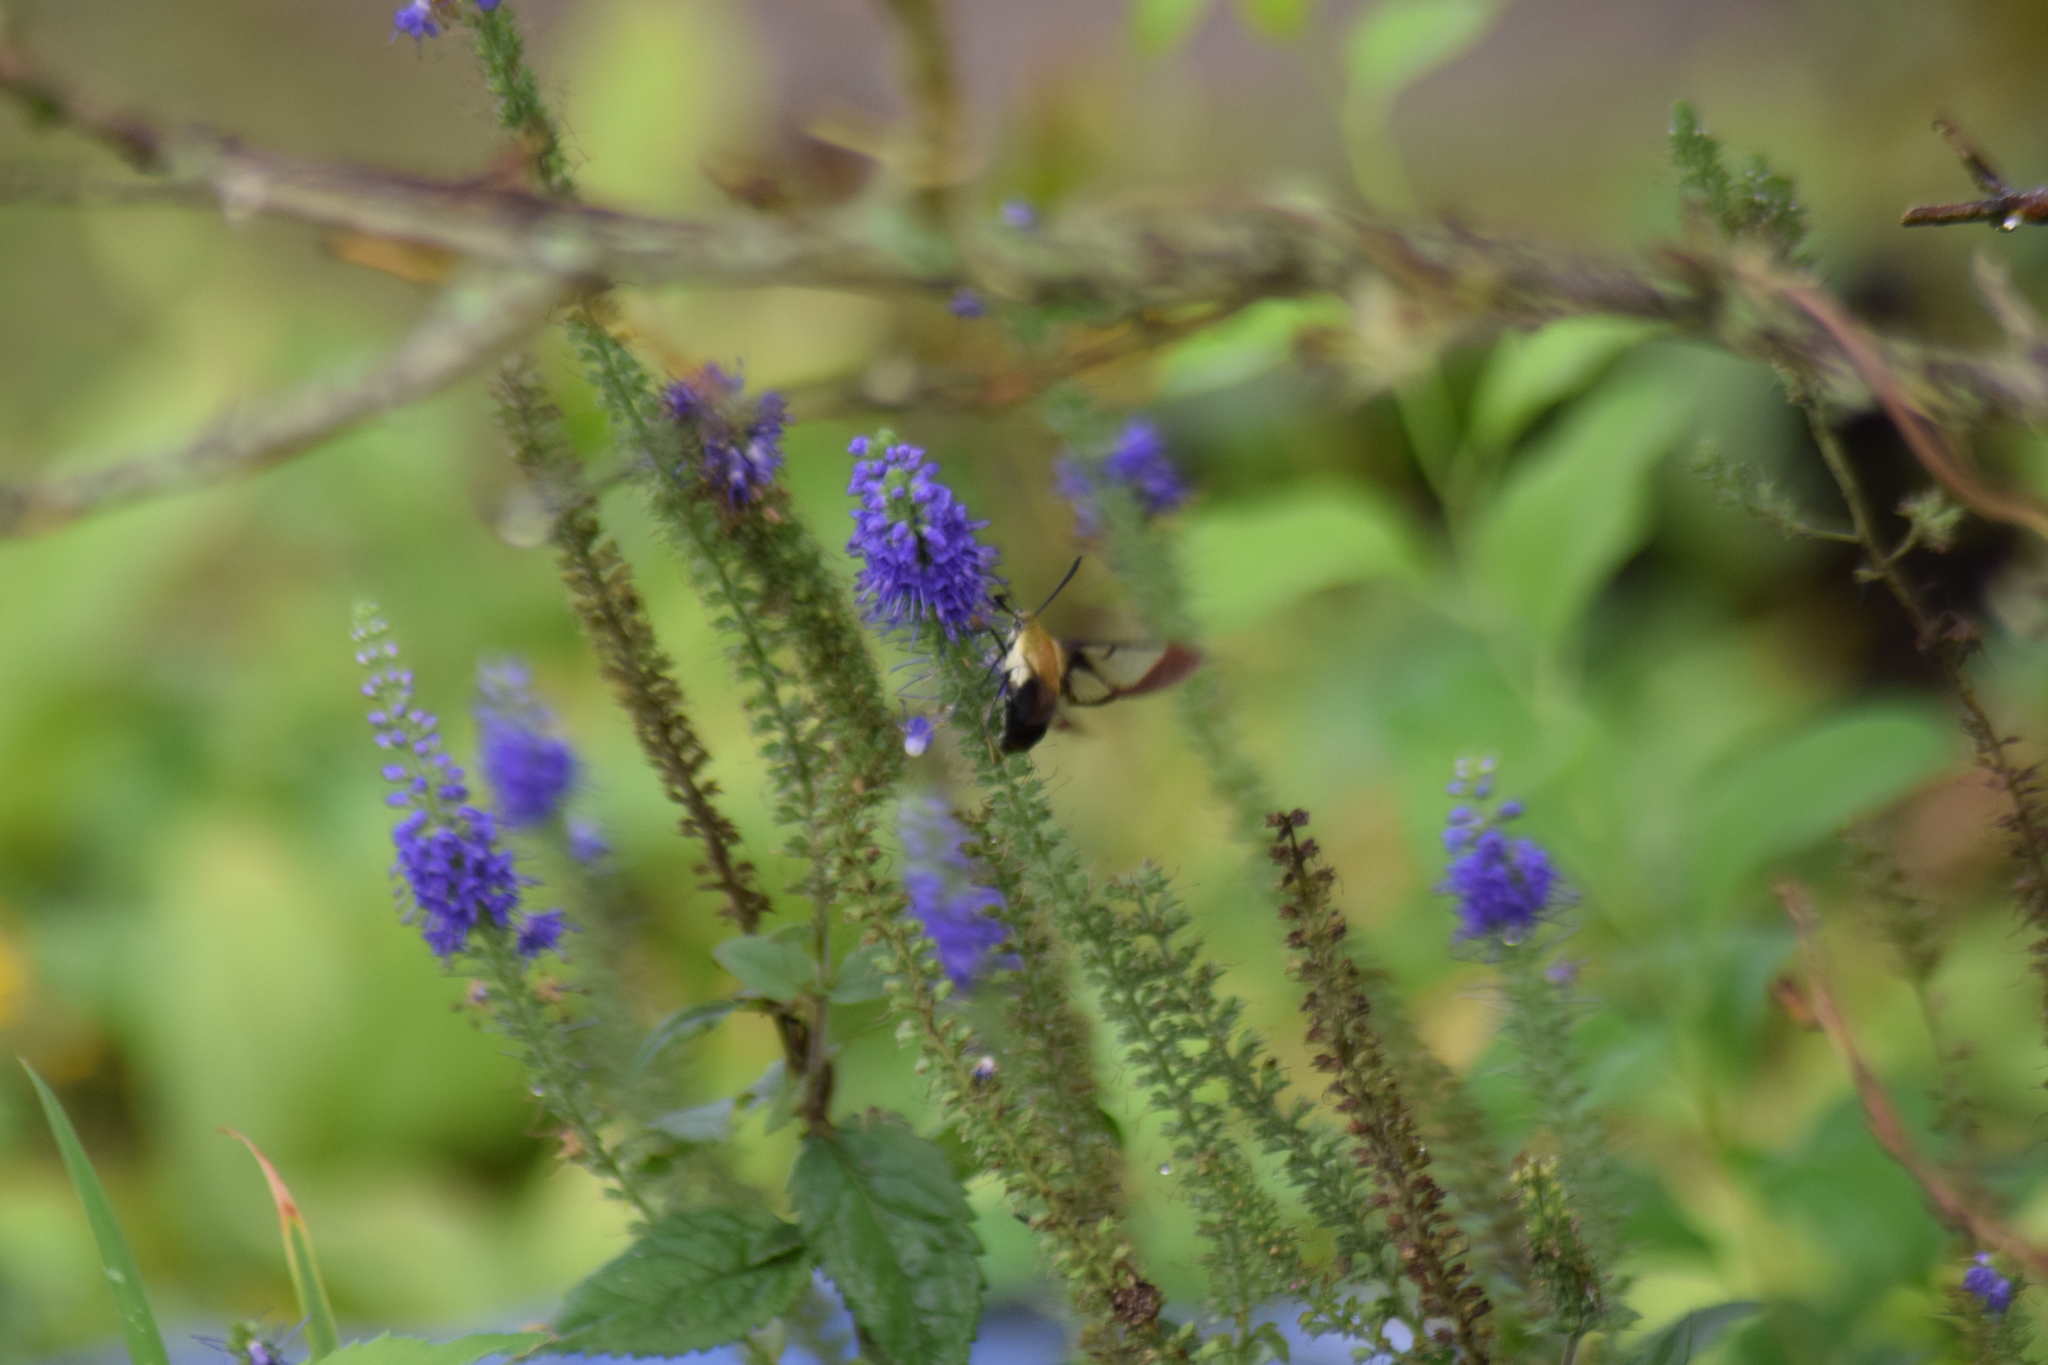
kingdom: Animalia
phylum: Arthropoda
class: Insecta
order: Lepidoptera
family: Sphingidae
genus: Hemaris
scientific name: Hemaris diffinis
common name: Bumblebee moth
